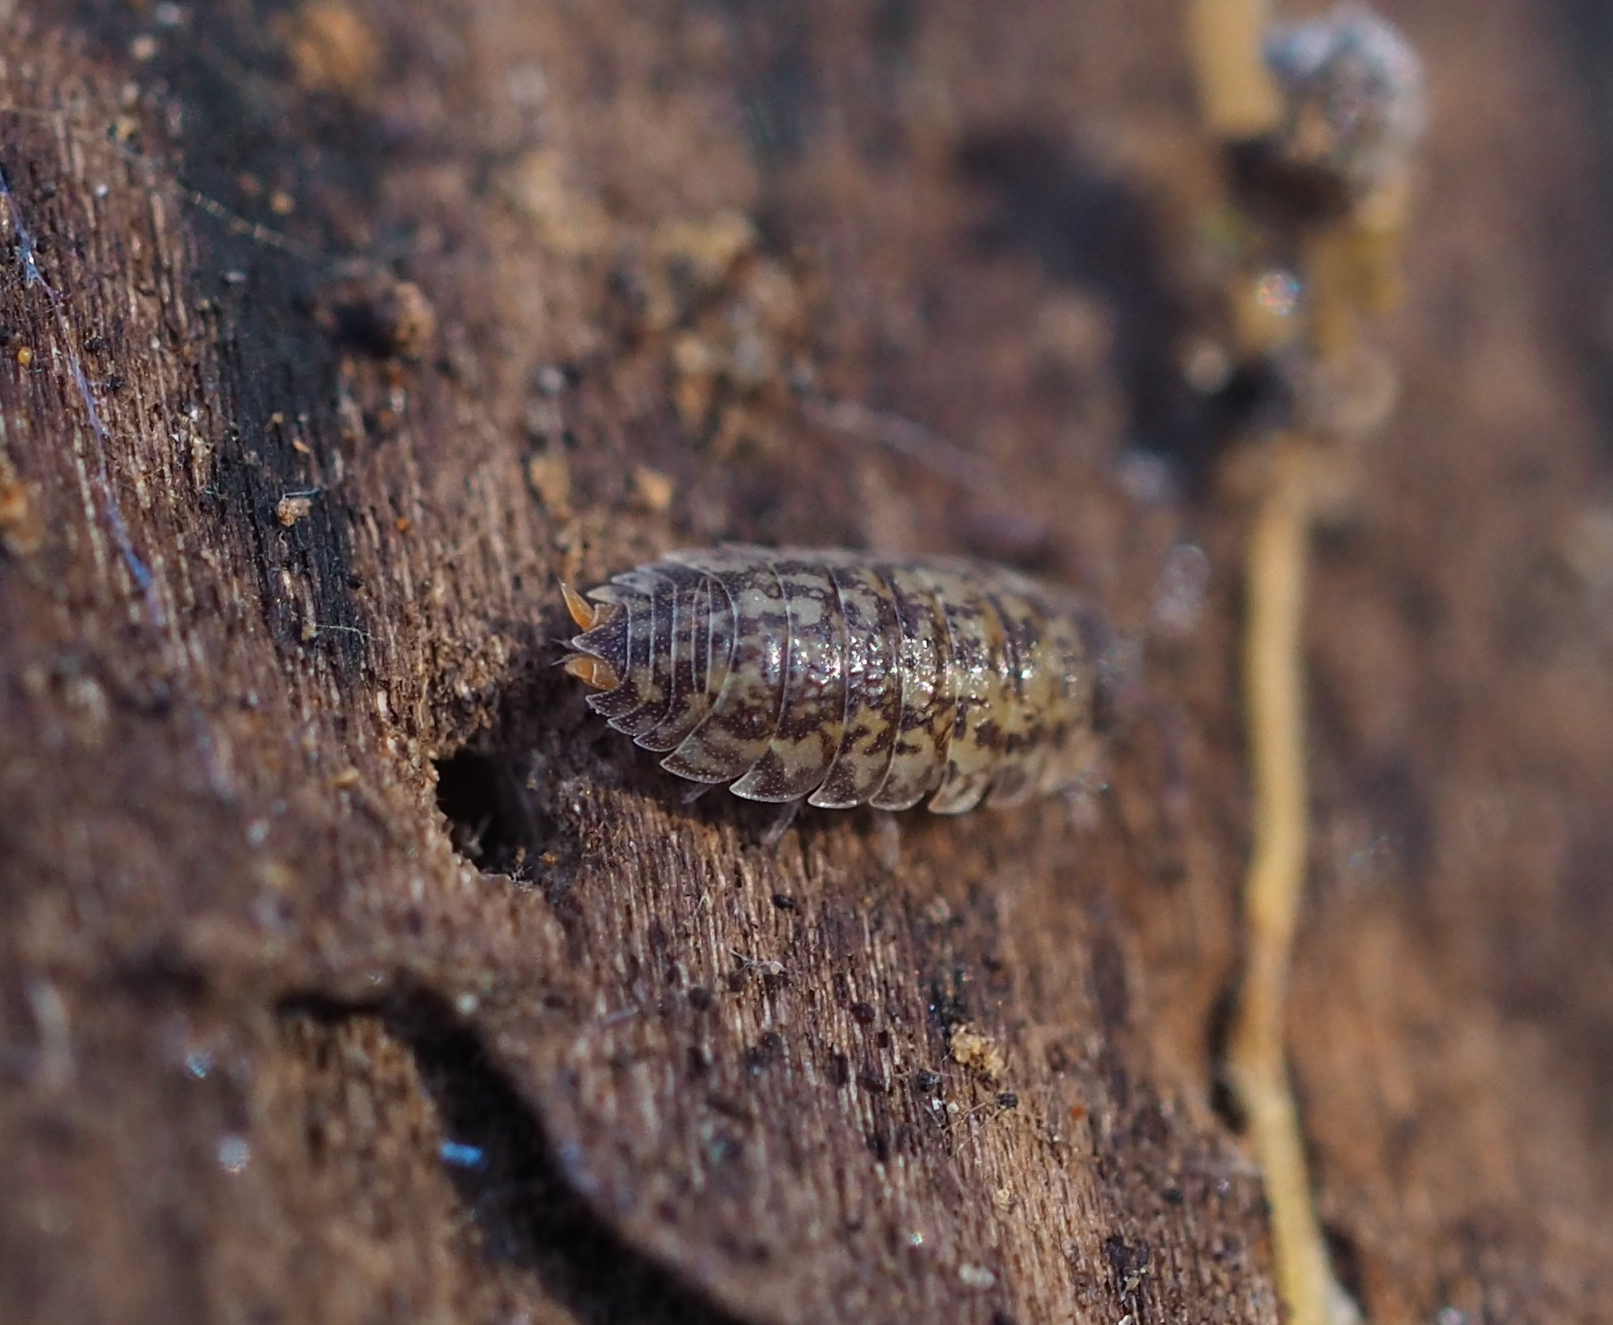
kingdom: Animalia
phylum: Arthropoda
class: Malacostraca
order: Isopoda
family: Porcellionidae
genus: Porcellio
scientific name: Porcellio scaber
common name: Common rough woodlouse
